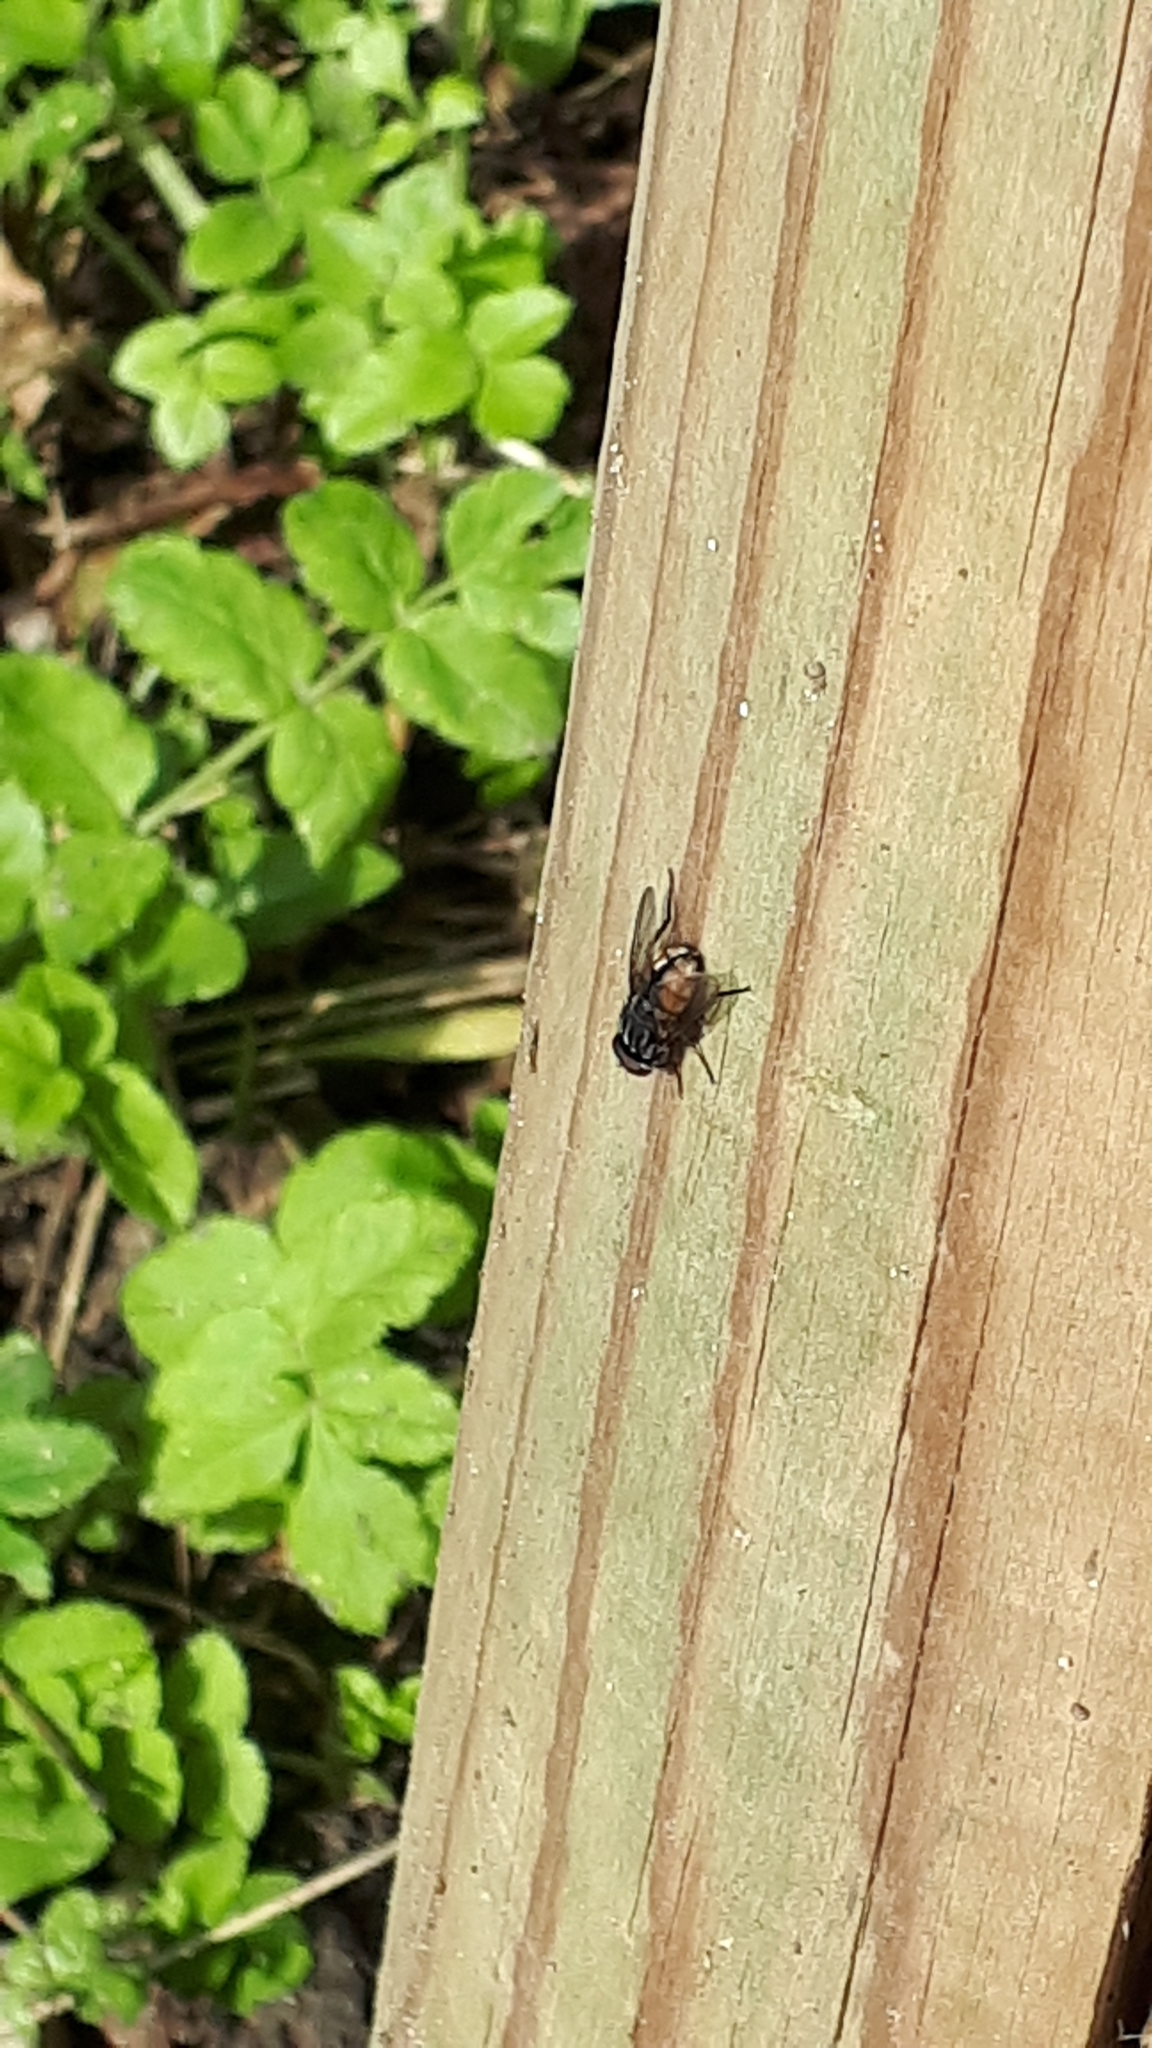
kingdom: Animalia
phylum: Arthropoda
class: Insecta
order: Diptera
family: Muscidae
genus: Musca
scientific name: Musca autumnalis
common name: Face fly
